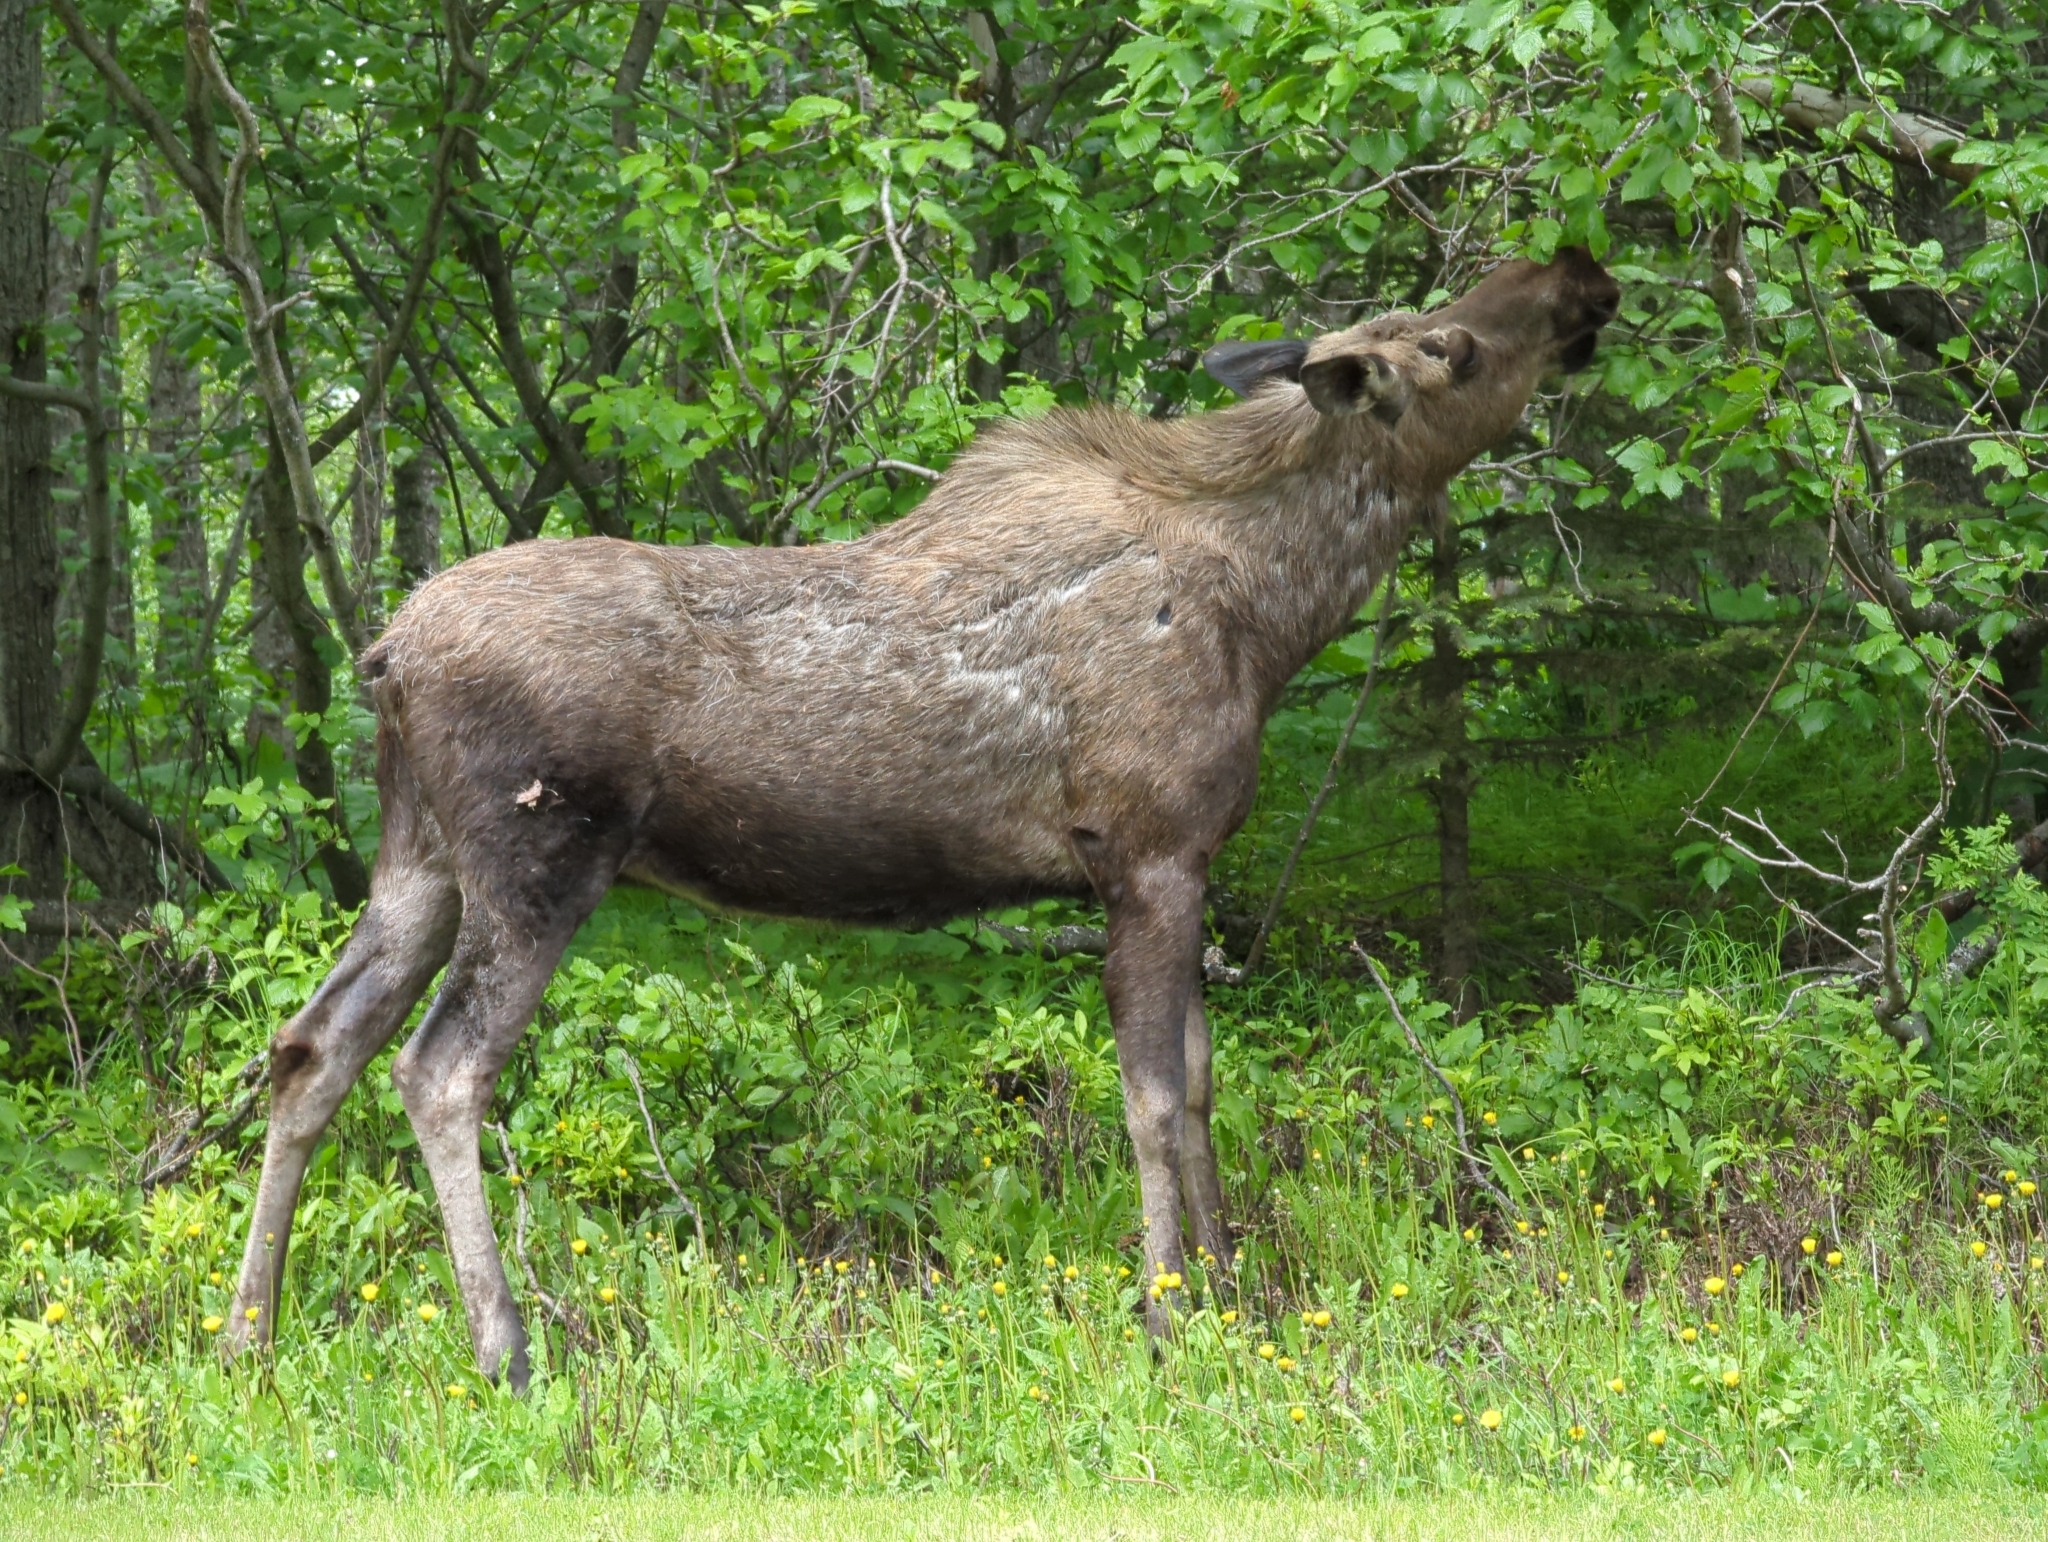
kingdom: Animalia
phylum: Chordata
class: Mammalia
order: Artiodactyla
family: Cervidae
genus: Alces
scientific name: Alces alces
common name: Moose
